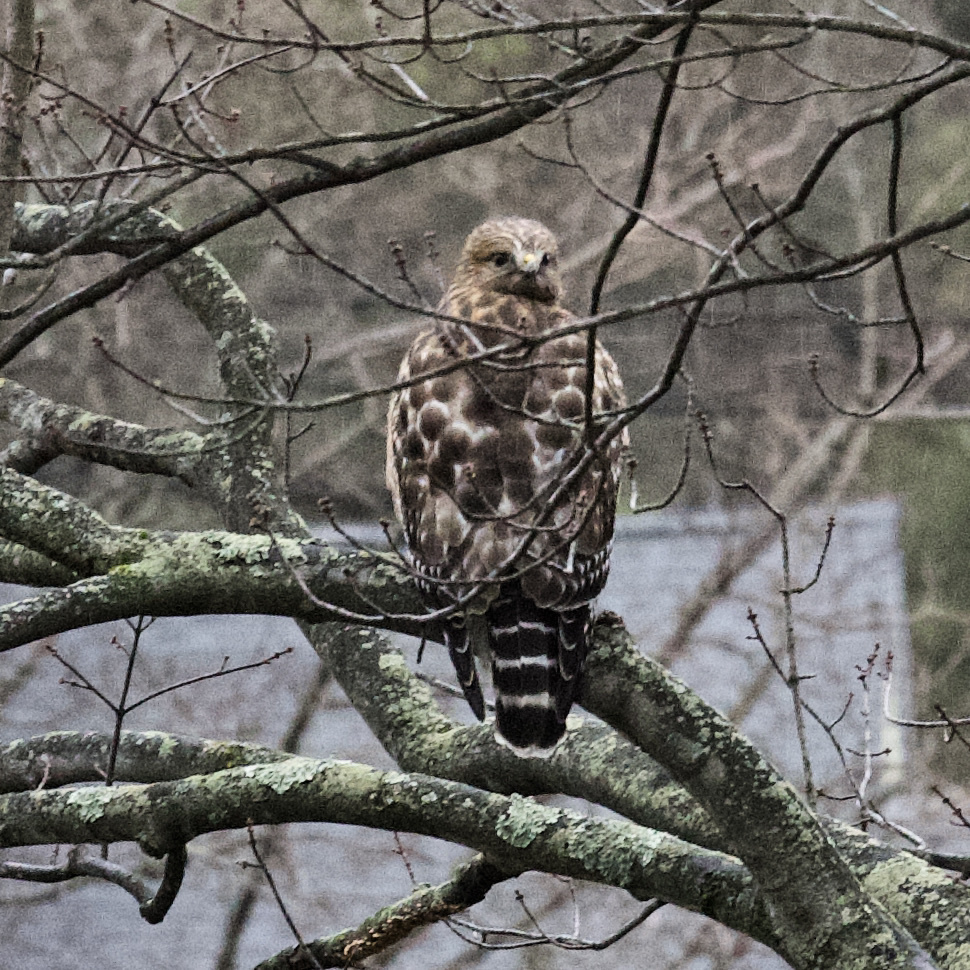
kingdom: Animalia
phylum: Chordata
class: Aves
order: Accipitriformes
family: Accipitridae
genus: Buteo
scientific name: Buteo lineatus
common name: Red-shouldered hawk
